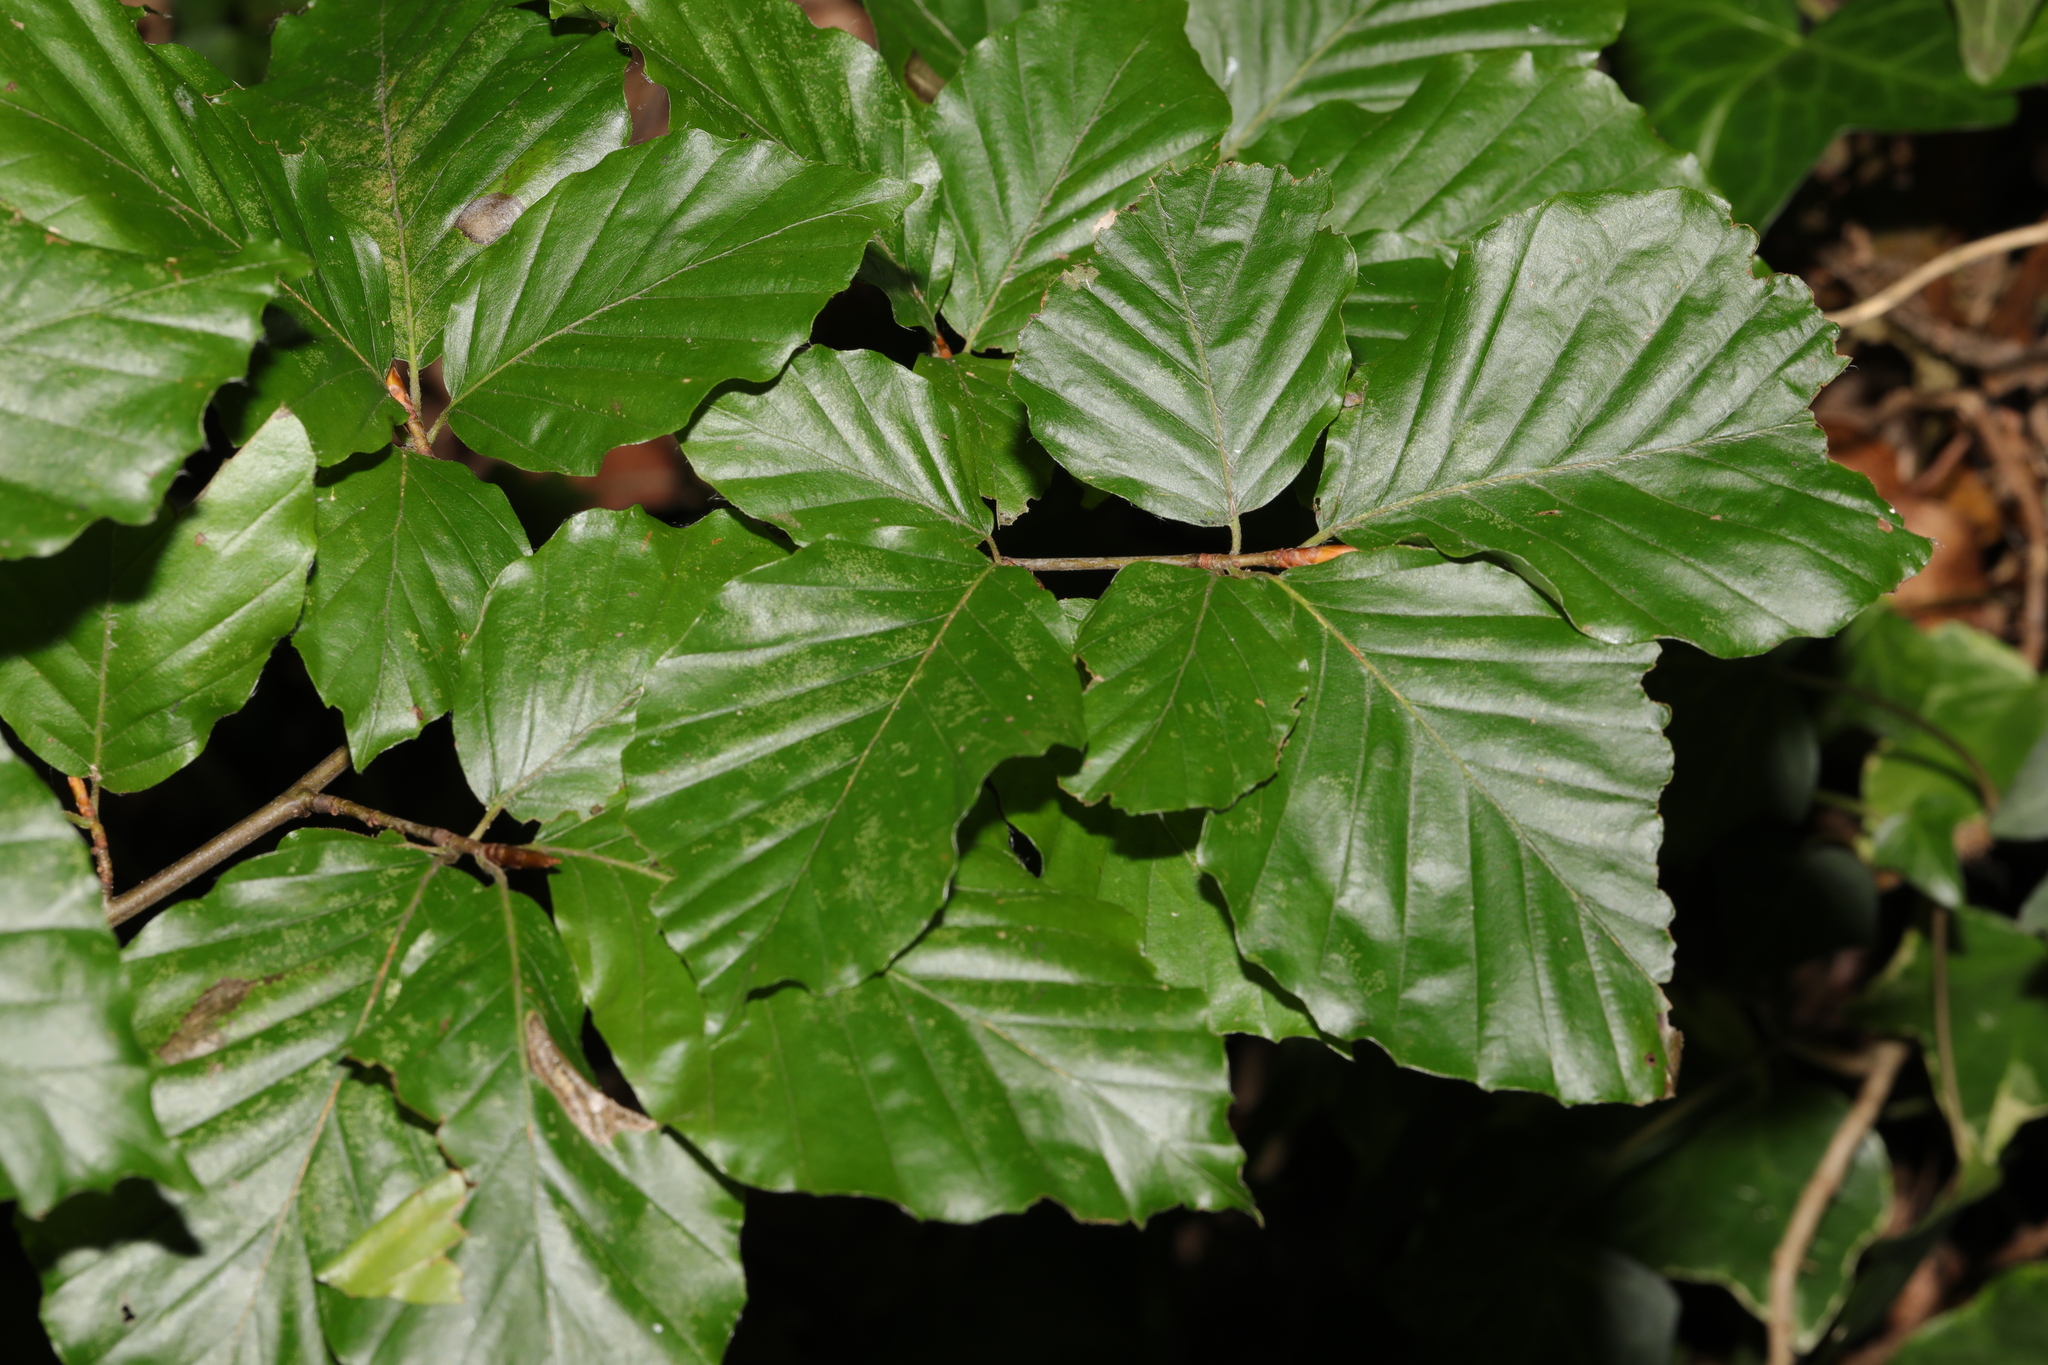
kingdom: Plantae
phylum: Tracheophyta
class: Magnoliopsida
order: Fagales
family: Fagaceae
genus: Fagus
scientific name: Fagus sylvatica
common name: Beech
